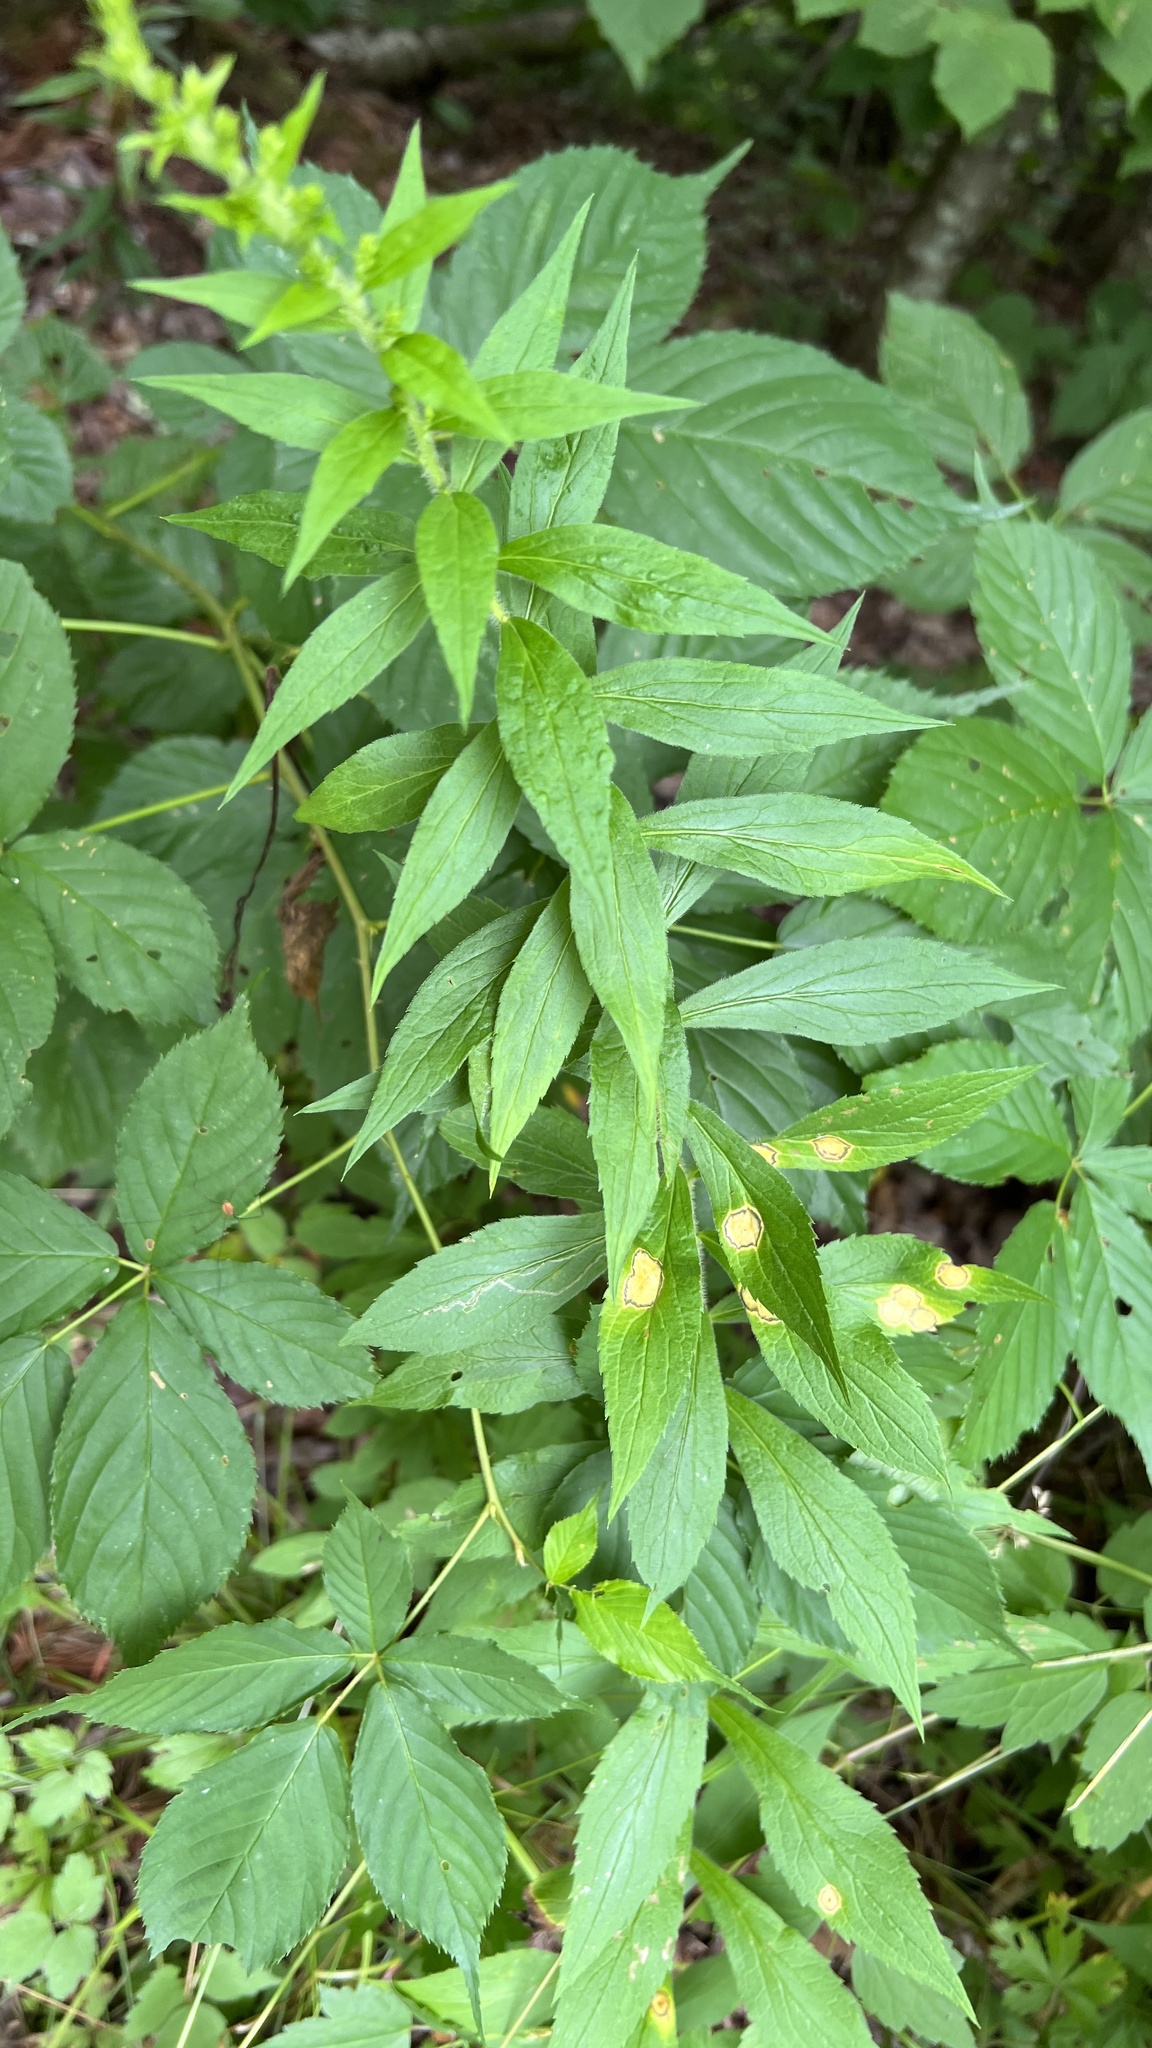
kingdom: Animalia
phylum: Arthropoda
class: Insecta
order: Diptera
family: Cecidomyiidae
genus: Asteromyia
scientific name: Asteromyia carbonifera
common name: Carbonifera goldenrod gall midge
